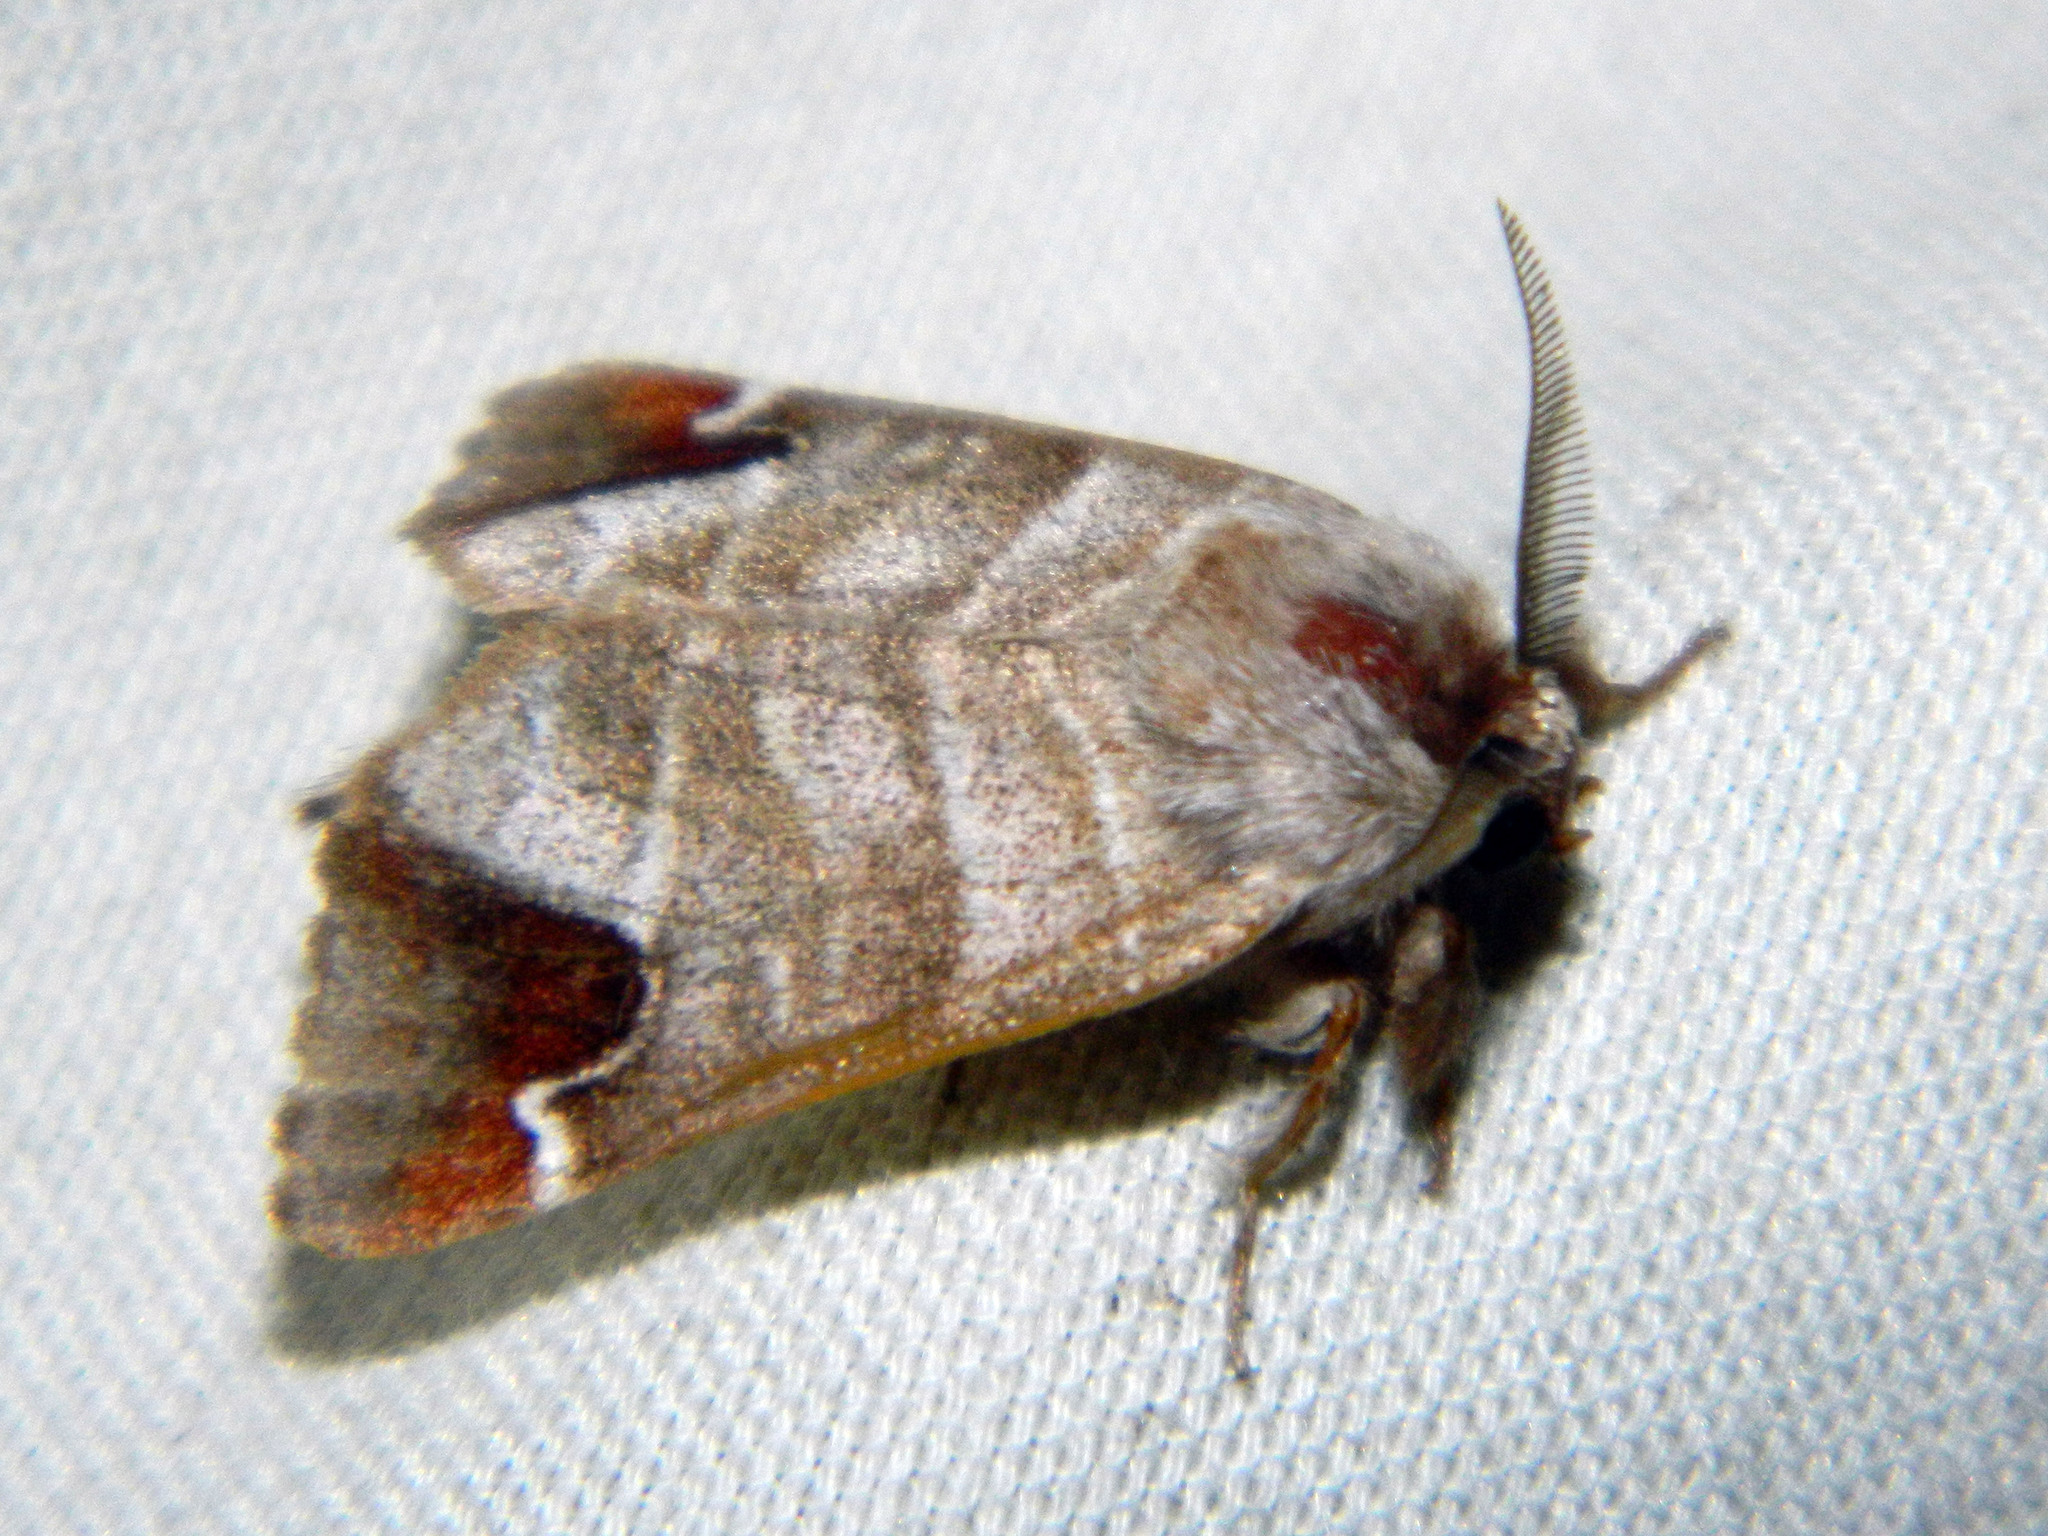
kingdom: Animalia
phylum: Arthropoda
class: Insecta
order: Lepidoptera
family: Notodontidae
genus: Clostera
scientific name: Clostera albosigma
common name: Sigmoid prominent
